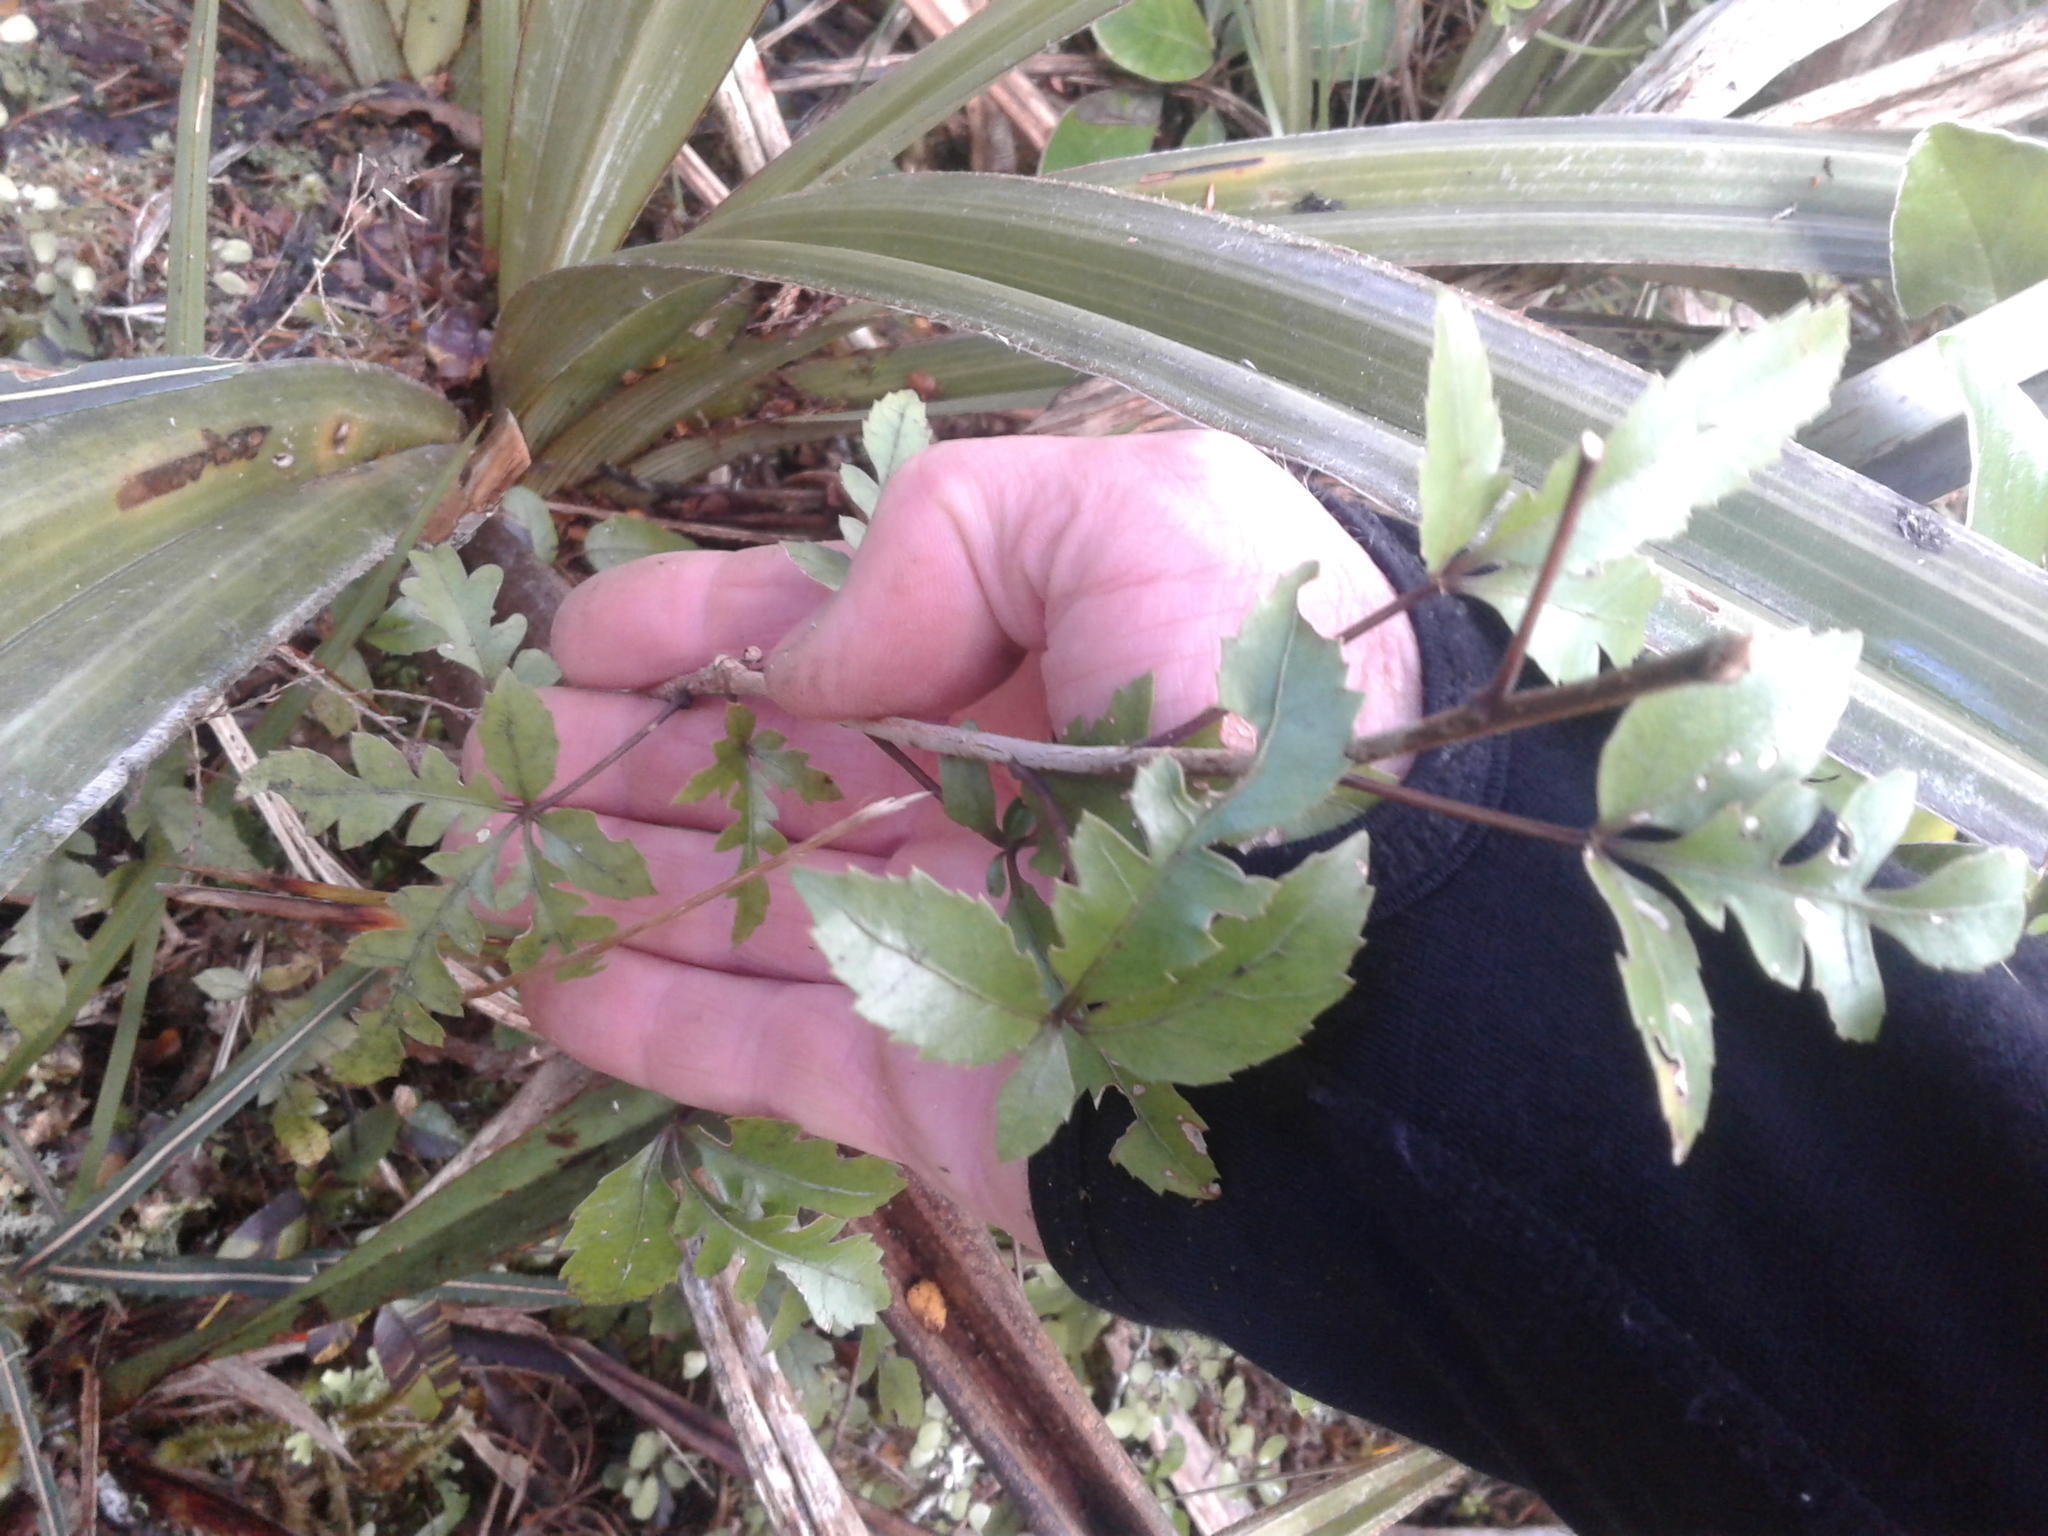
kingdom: Plantae
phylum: Tracheophyta
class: Magnoliopsida
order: Apiales
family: Araliaceae
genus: Raukaua
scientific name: Raukaua simplex
